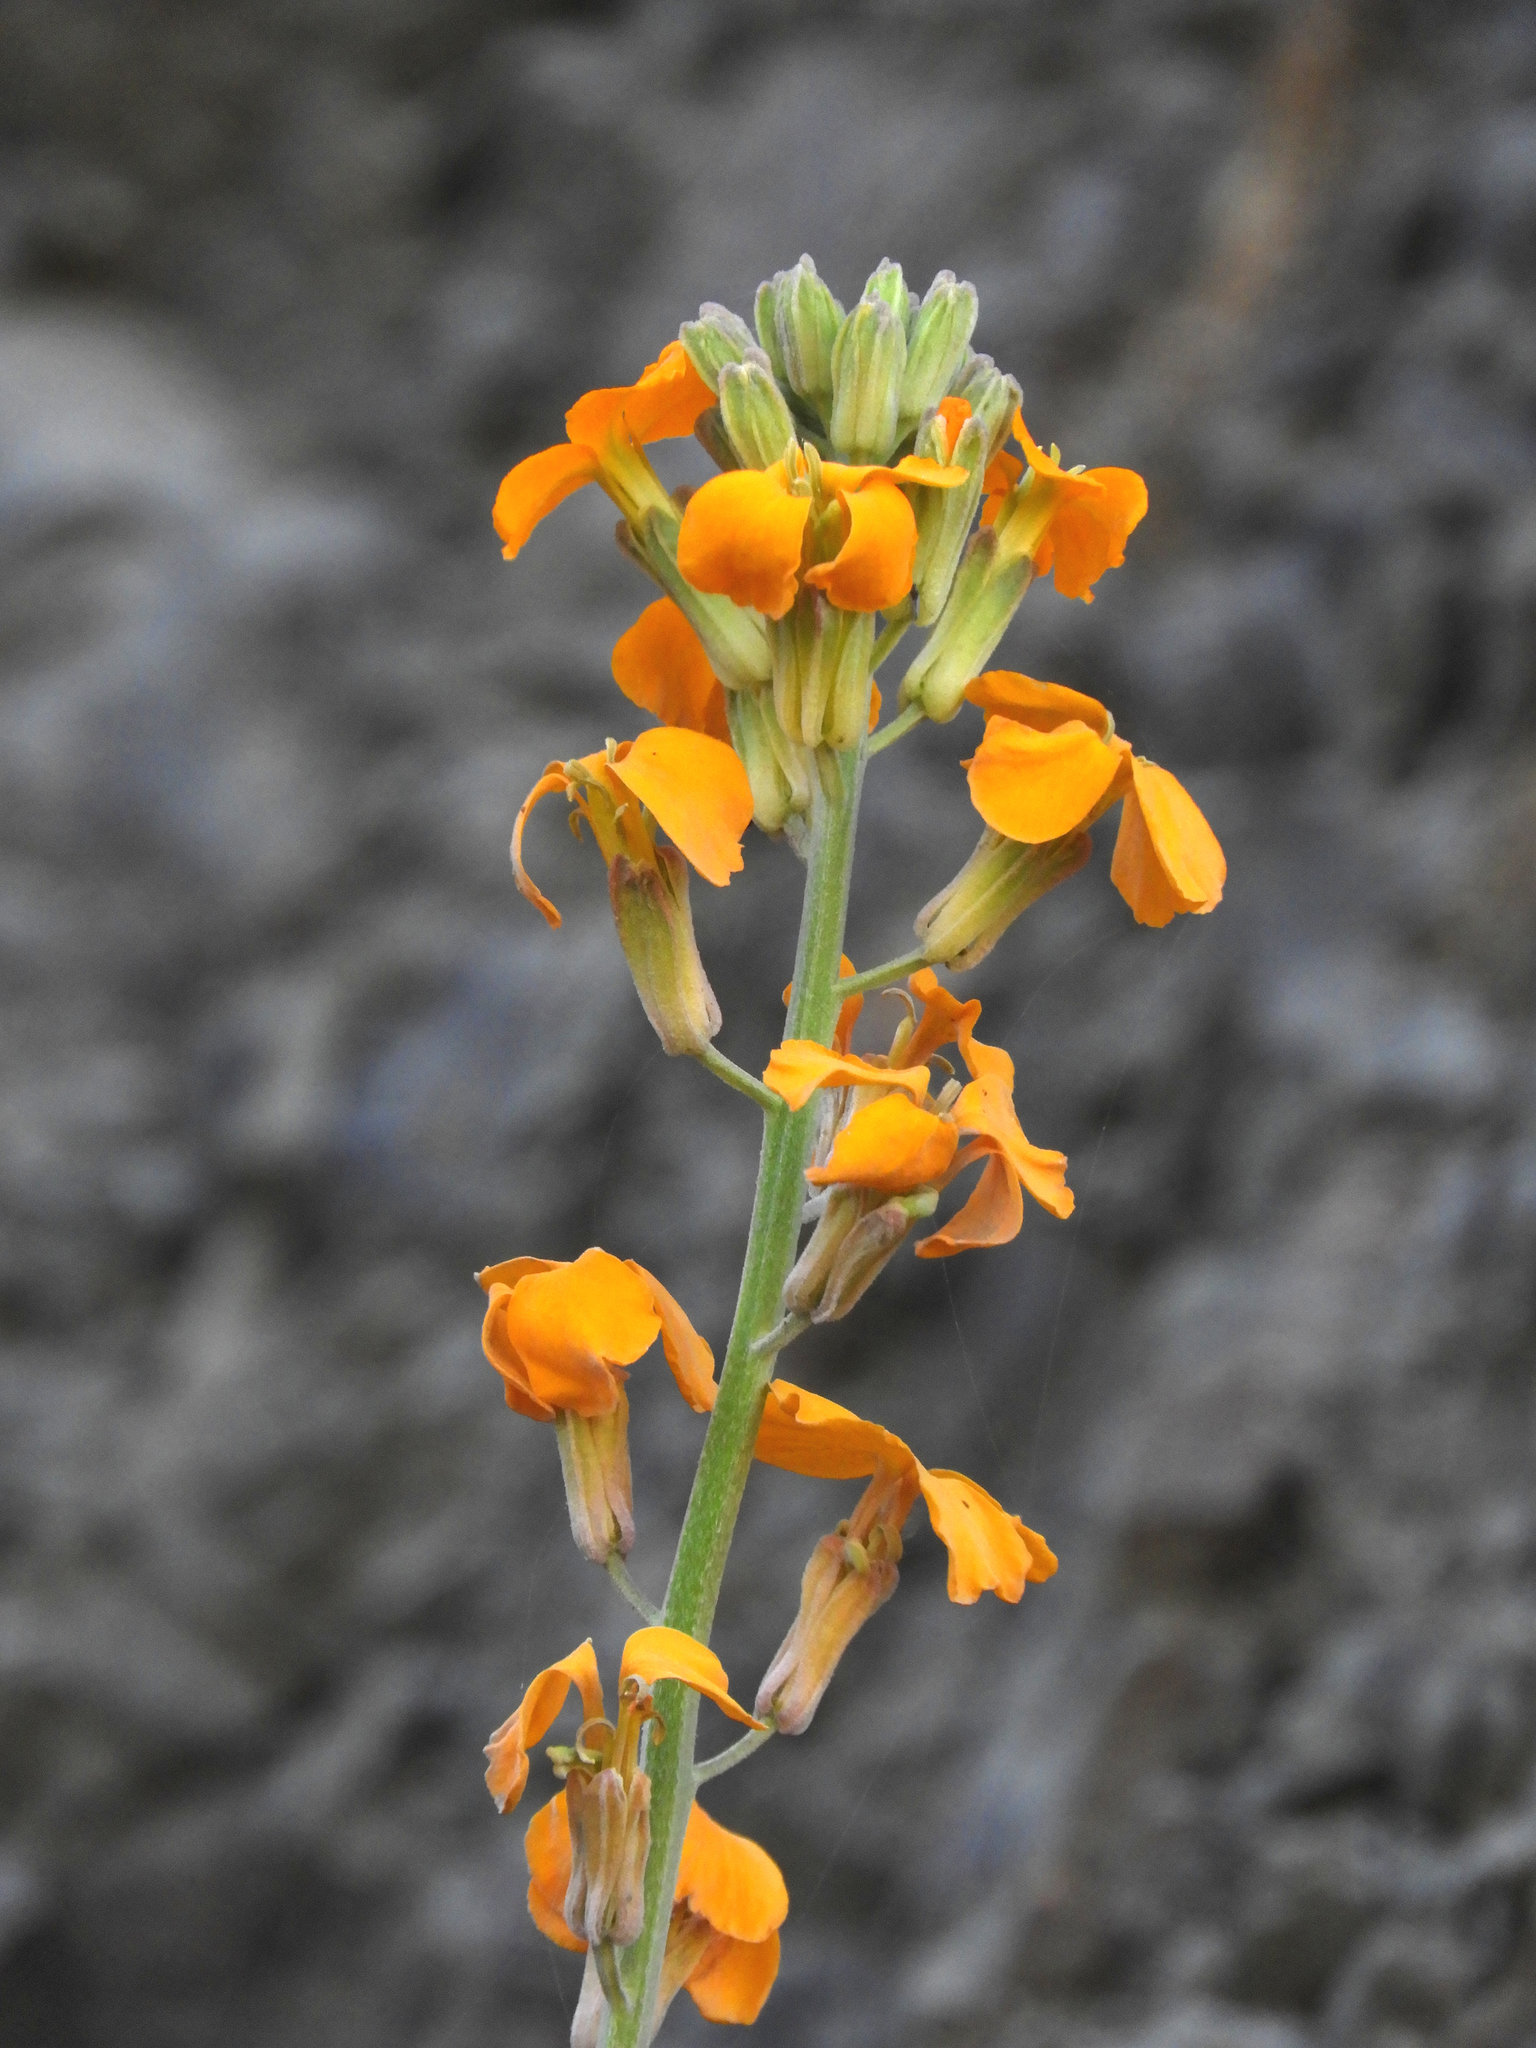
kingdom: Plantae
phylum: Tracheophyta
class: Magnoliopsida
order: Brassicales
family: Brassicaceae
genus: Erysimum
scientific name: Erysimum capitatum
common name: Western wallflower
